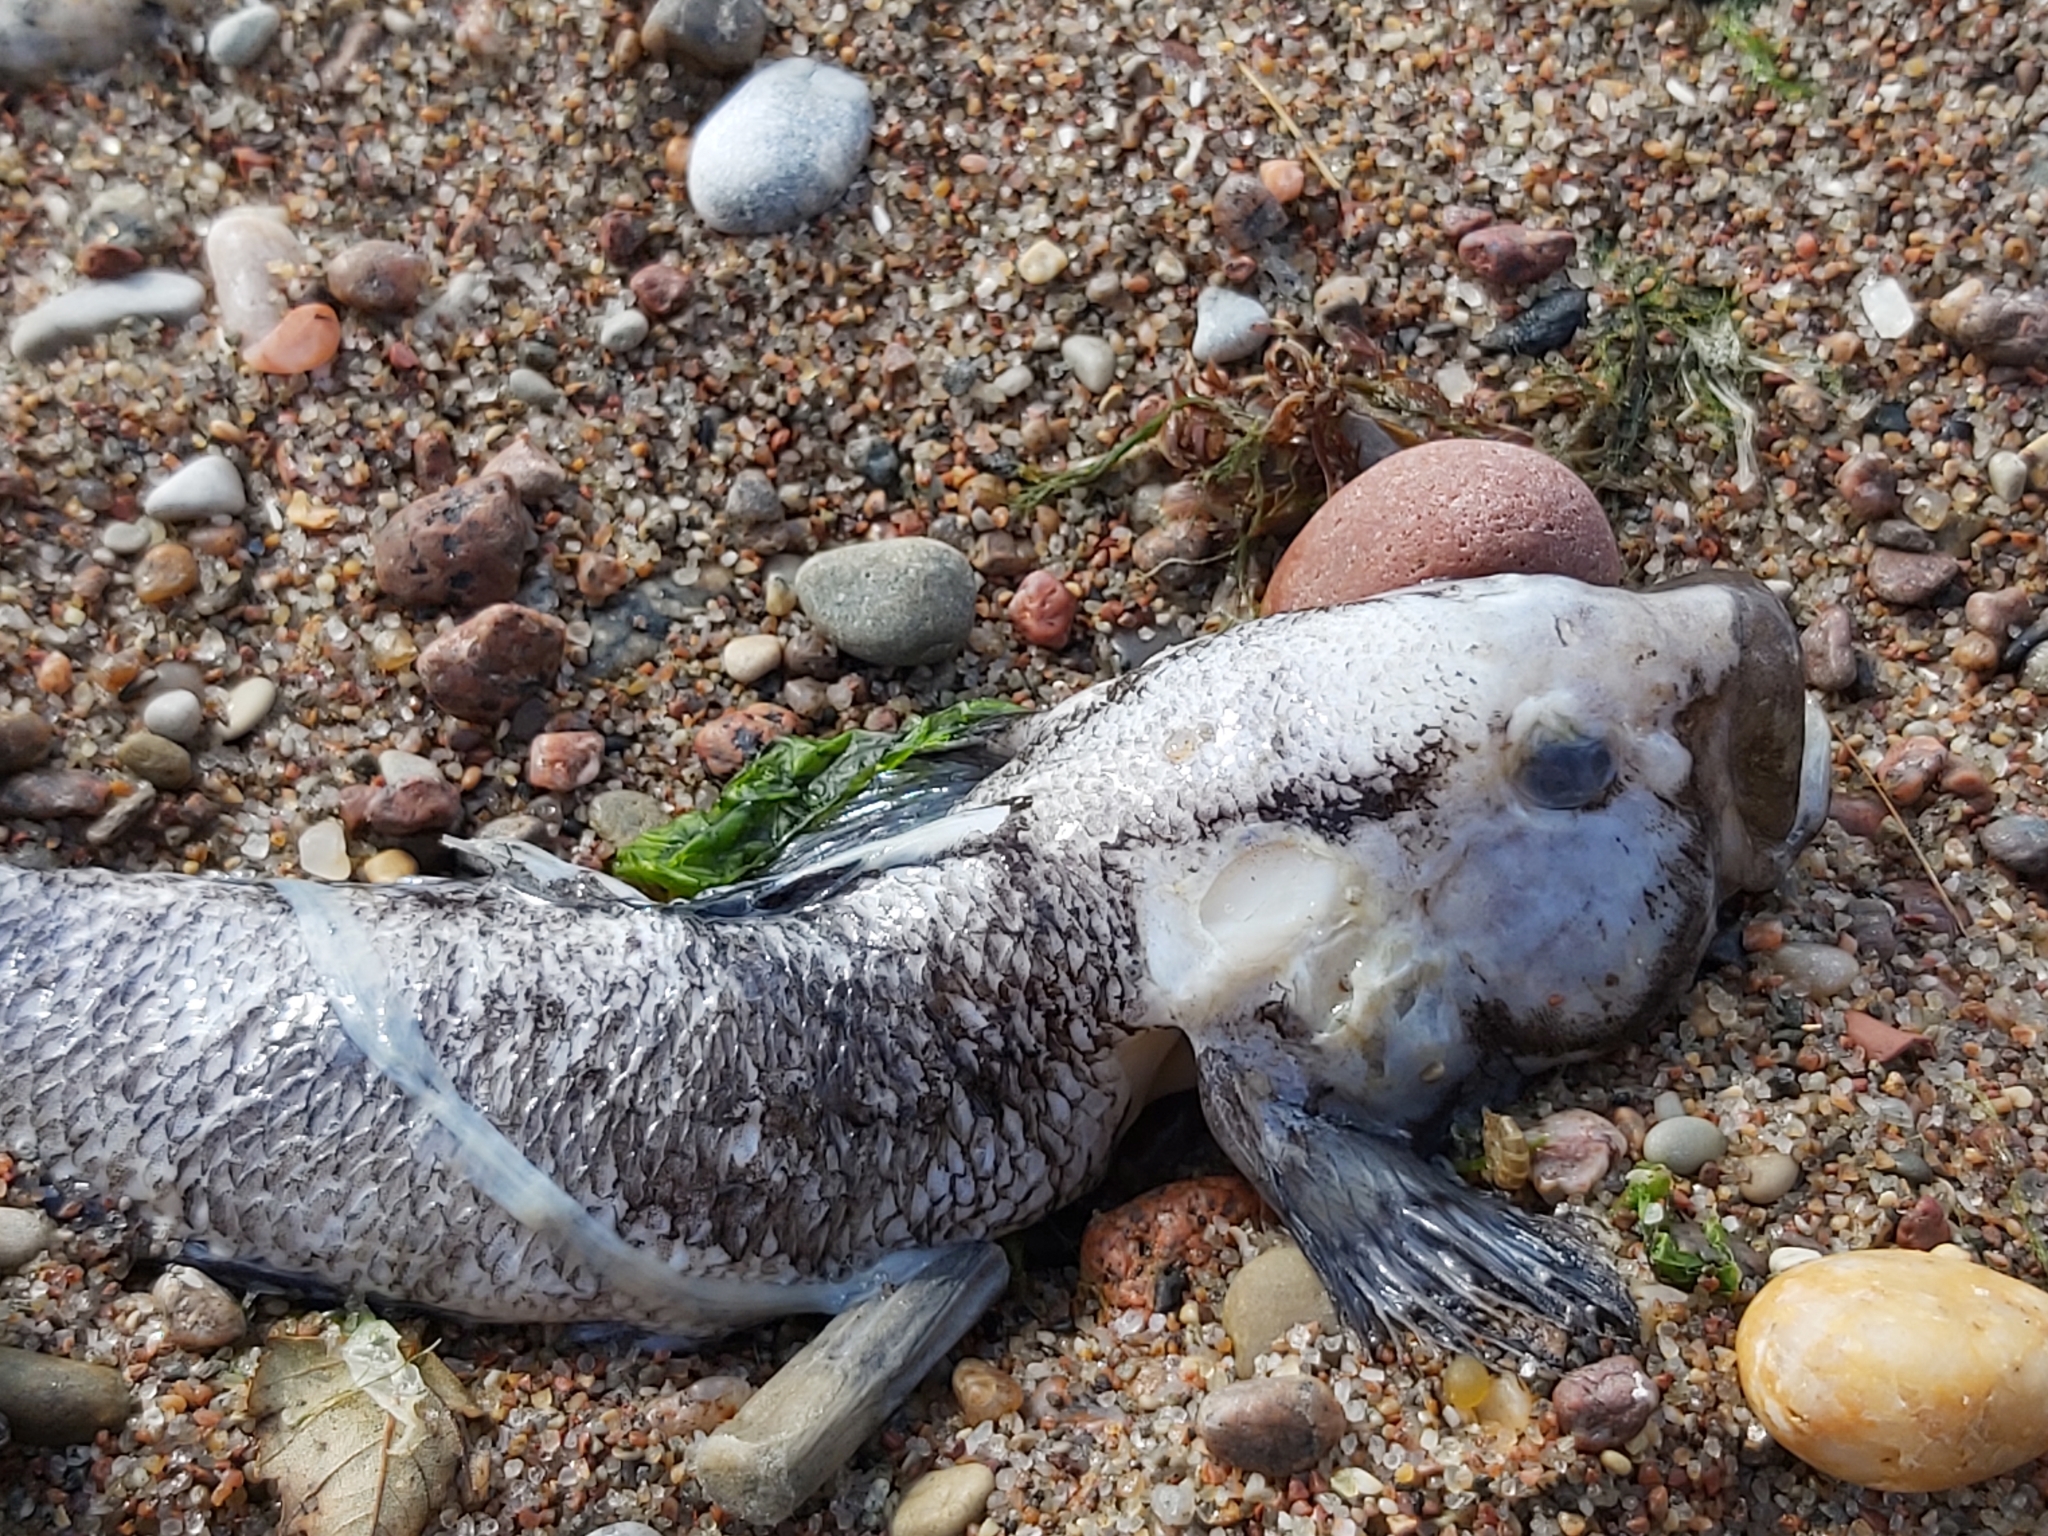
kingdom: Animalia
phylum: Chordata
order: Perciformes
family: Gobiidae
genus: Neogobius
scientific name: Neogobius melanostomus
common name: Round goby
